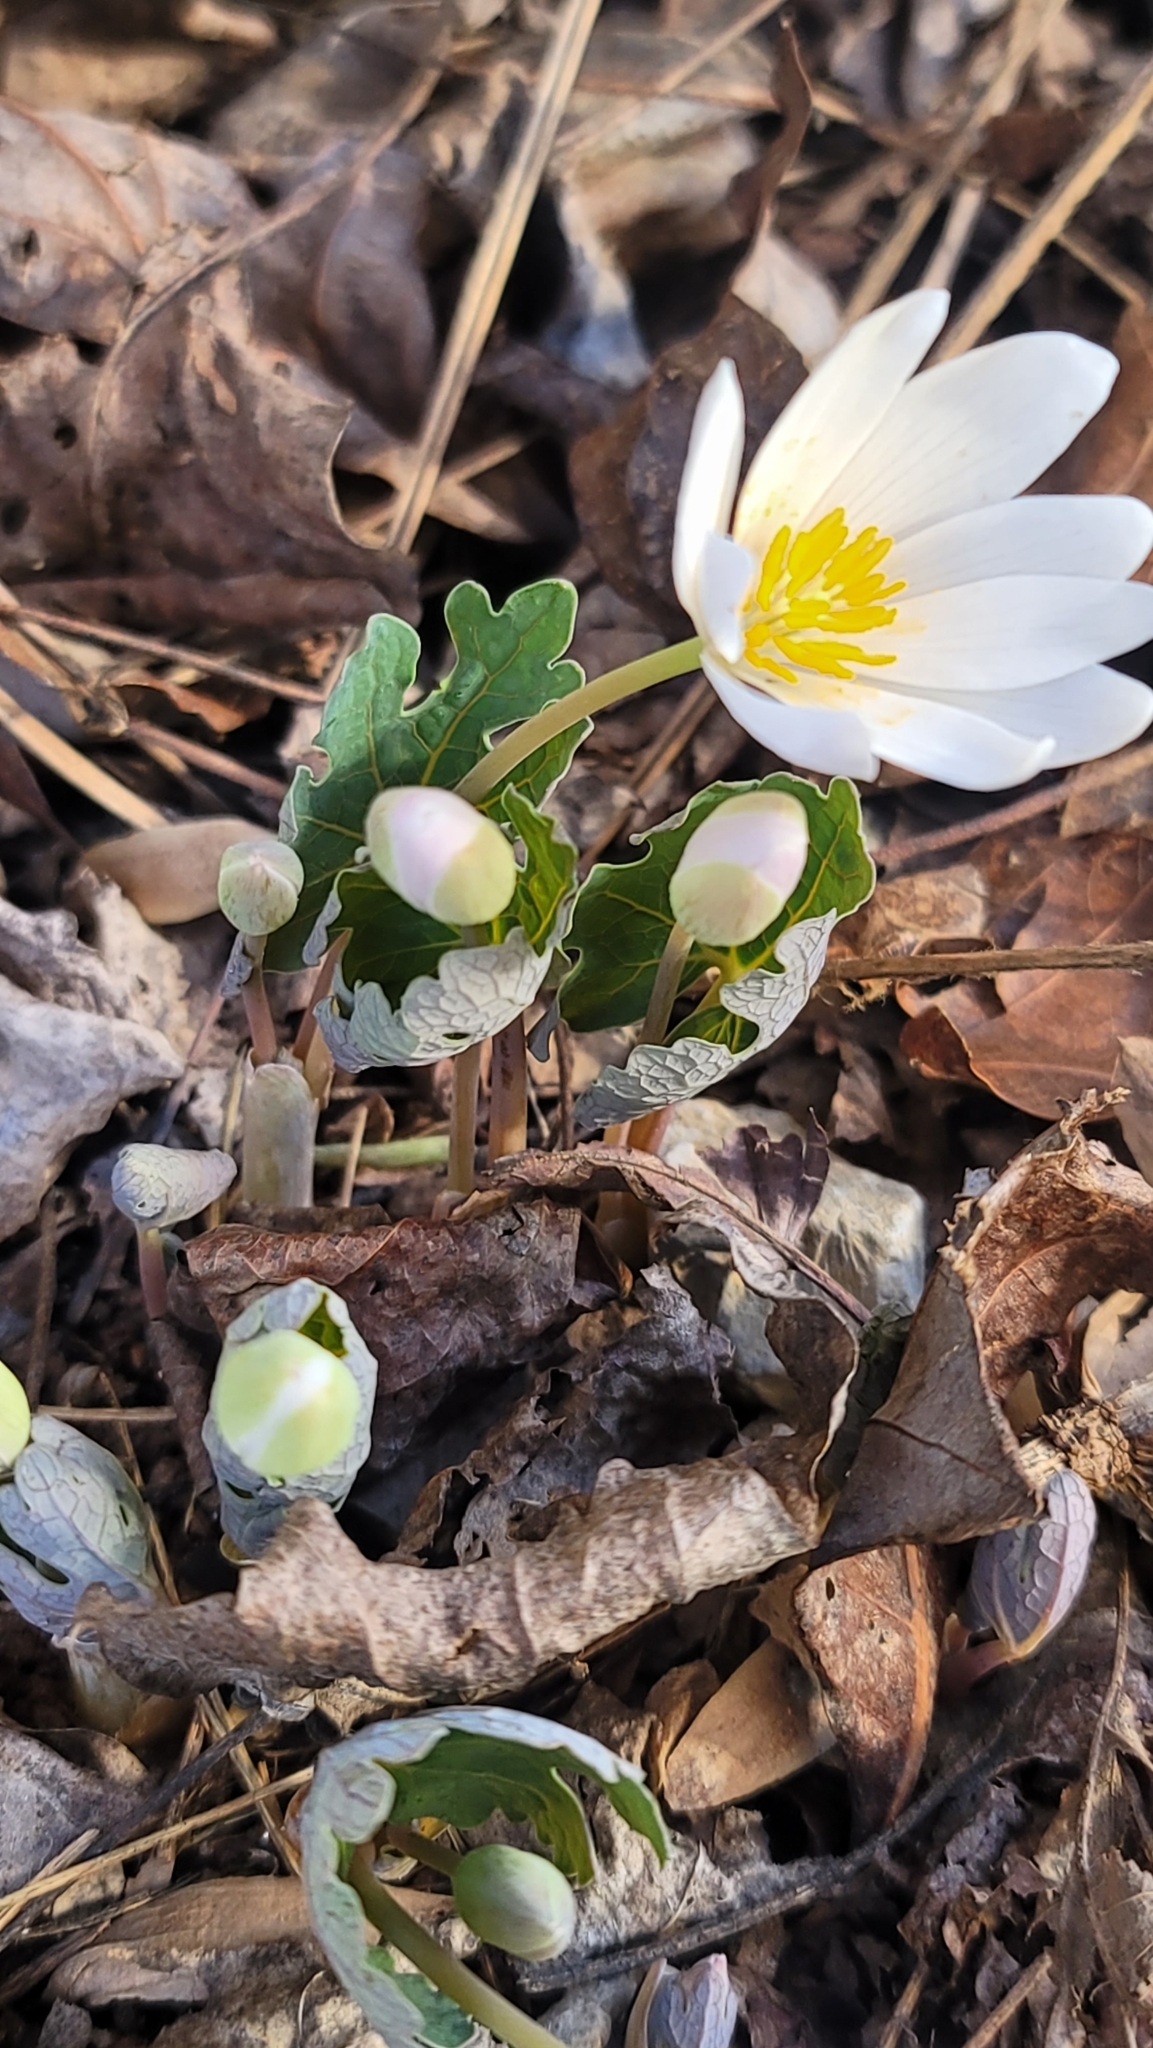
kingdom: Plantae
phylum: Tracheophyta
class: Magnoliopsida
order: Ranunculales
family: Papaveraceae
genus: Sanguinaria
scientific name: Sanguinaria canadensis
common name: Bloodroot
